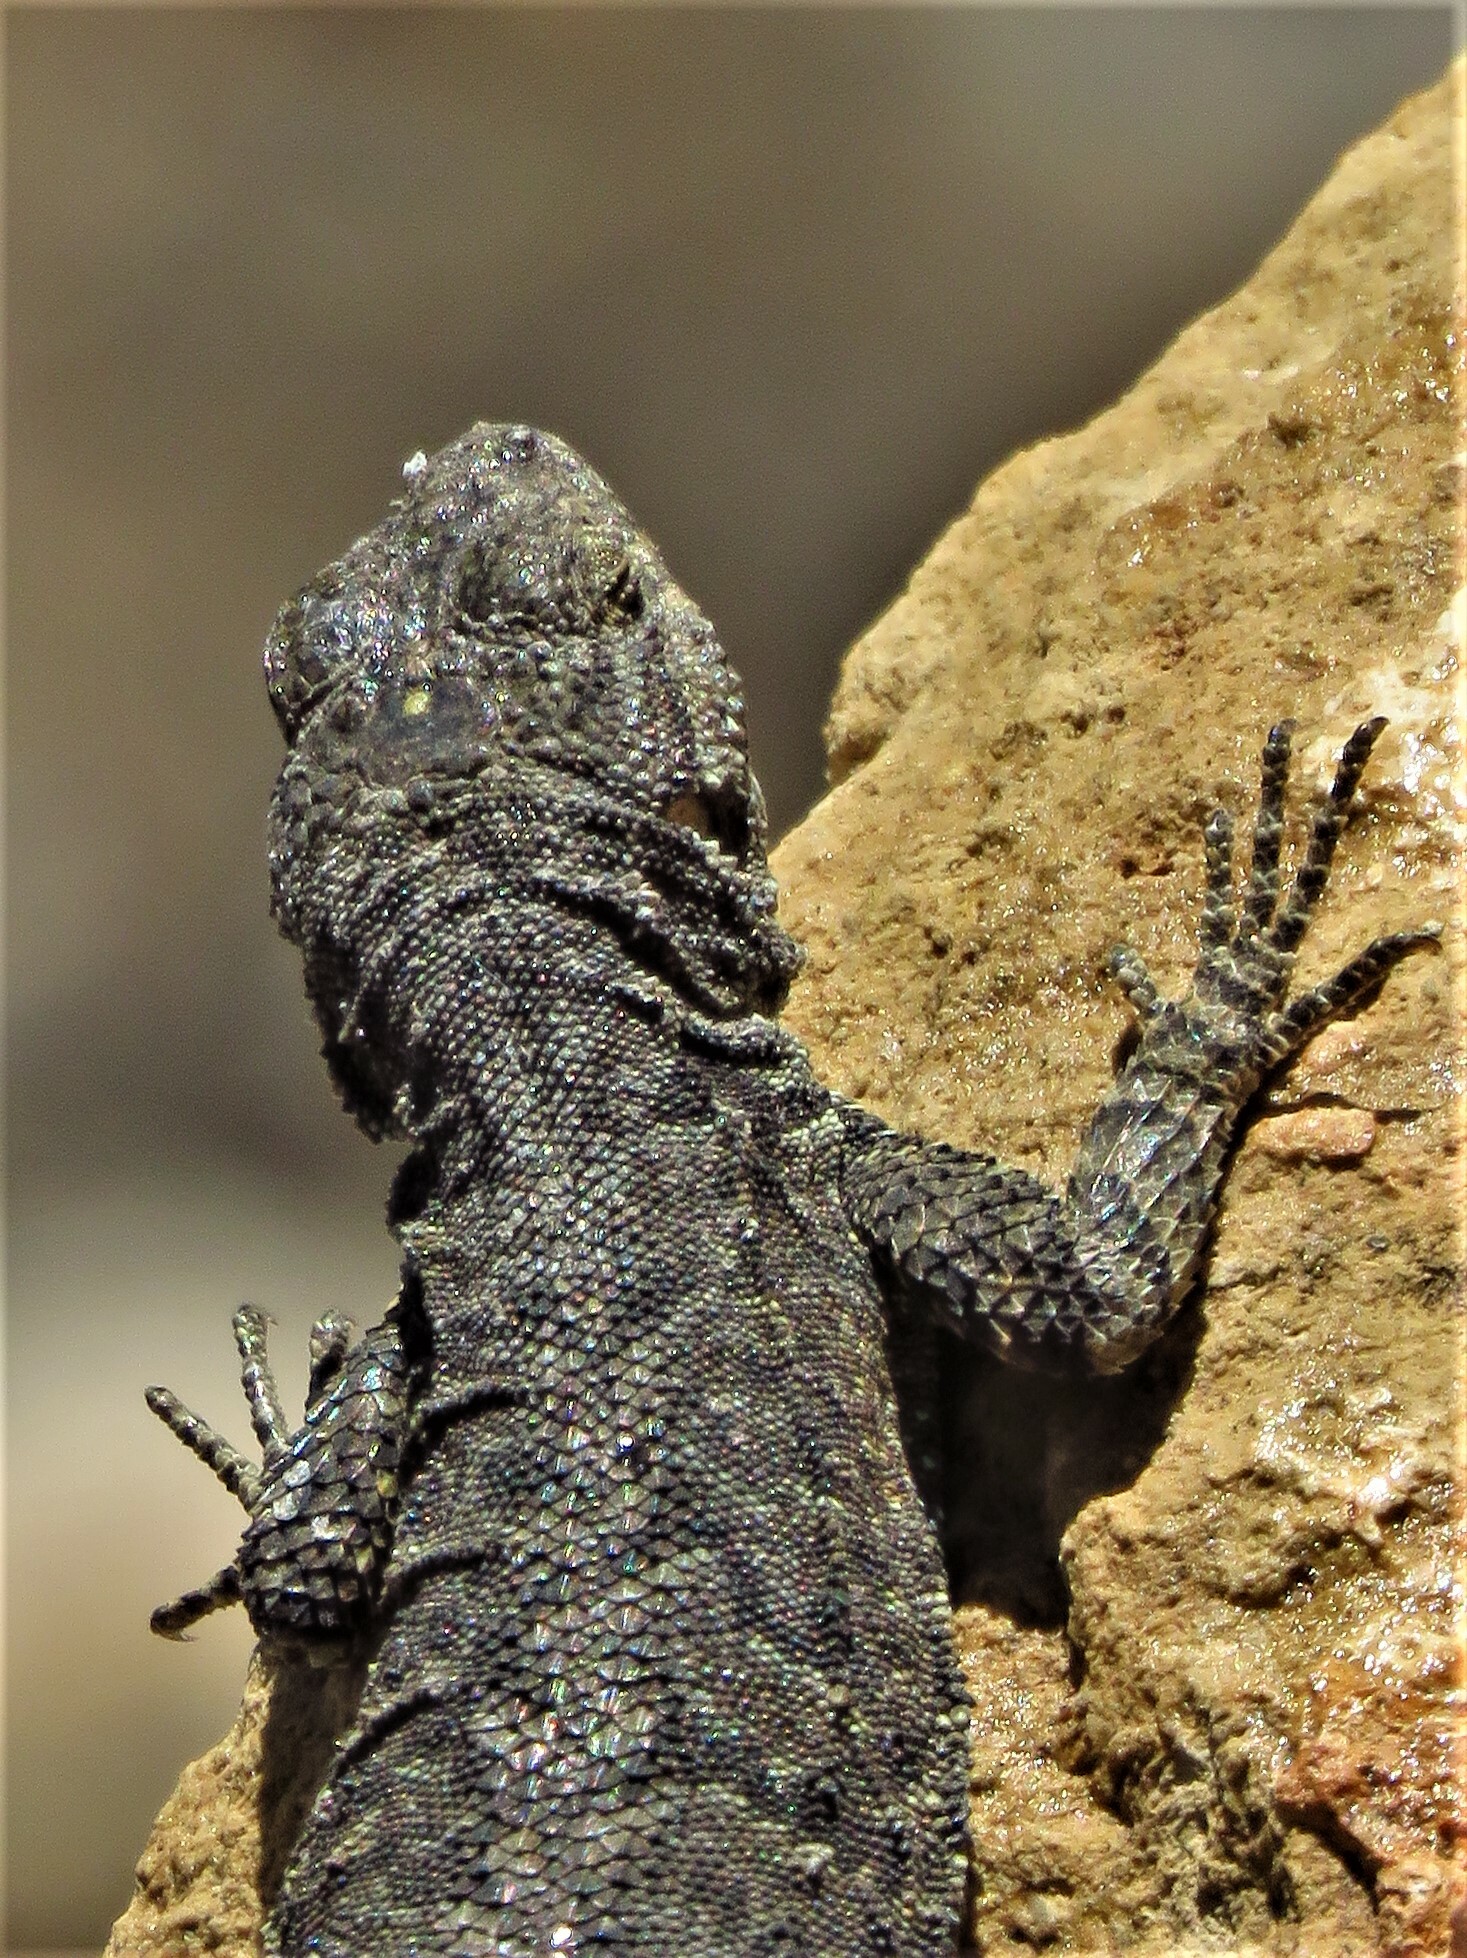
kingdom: Animalia
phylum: Chordata
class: Squamata
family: Phrynosomatidae
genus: Urosaurus
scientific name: Urosaurus ornatus
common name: Ornate tree lizard
